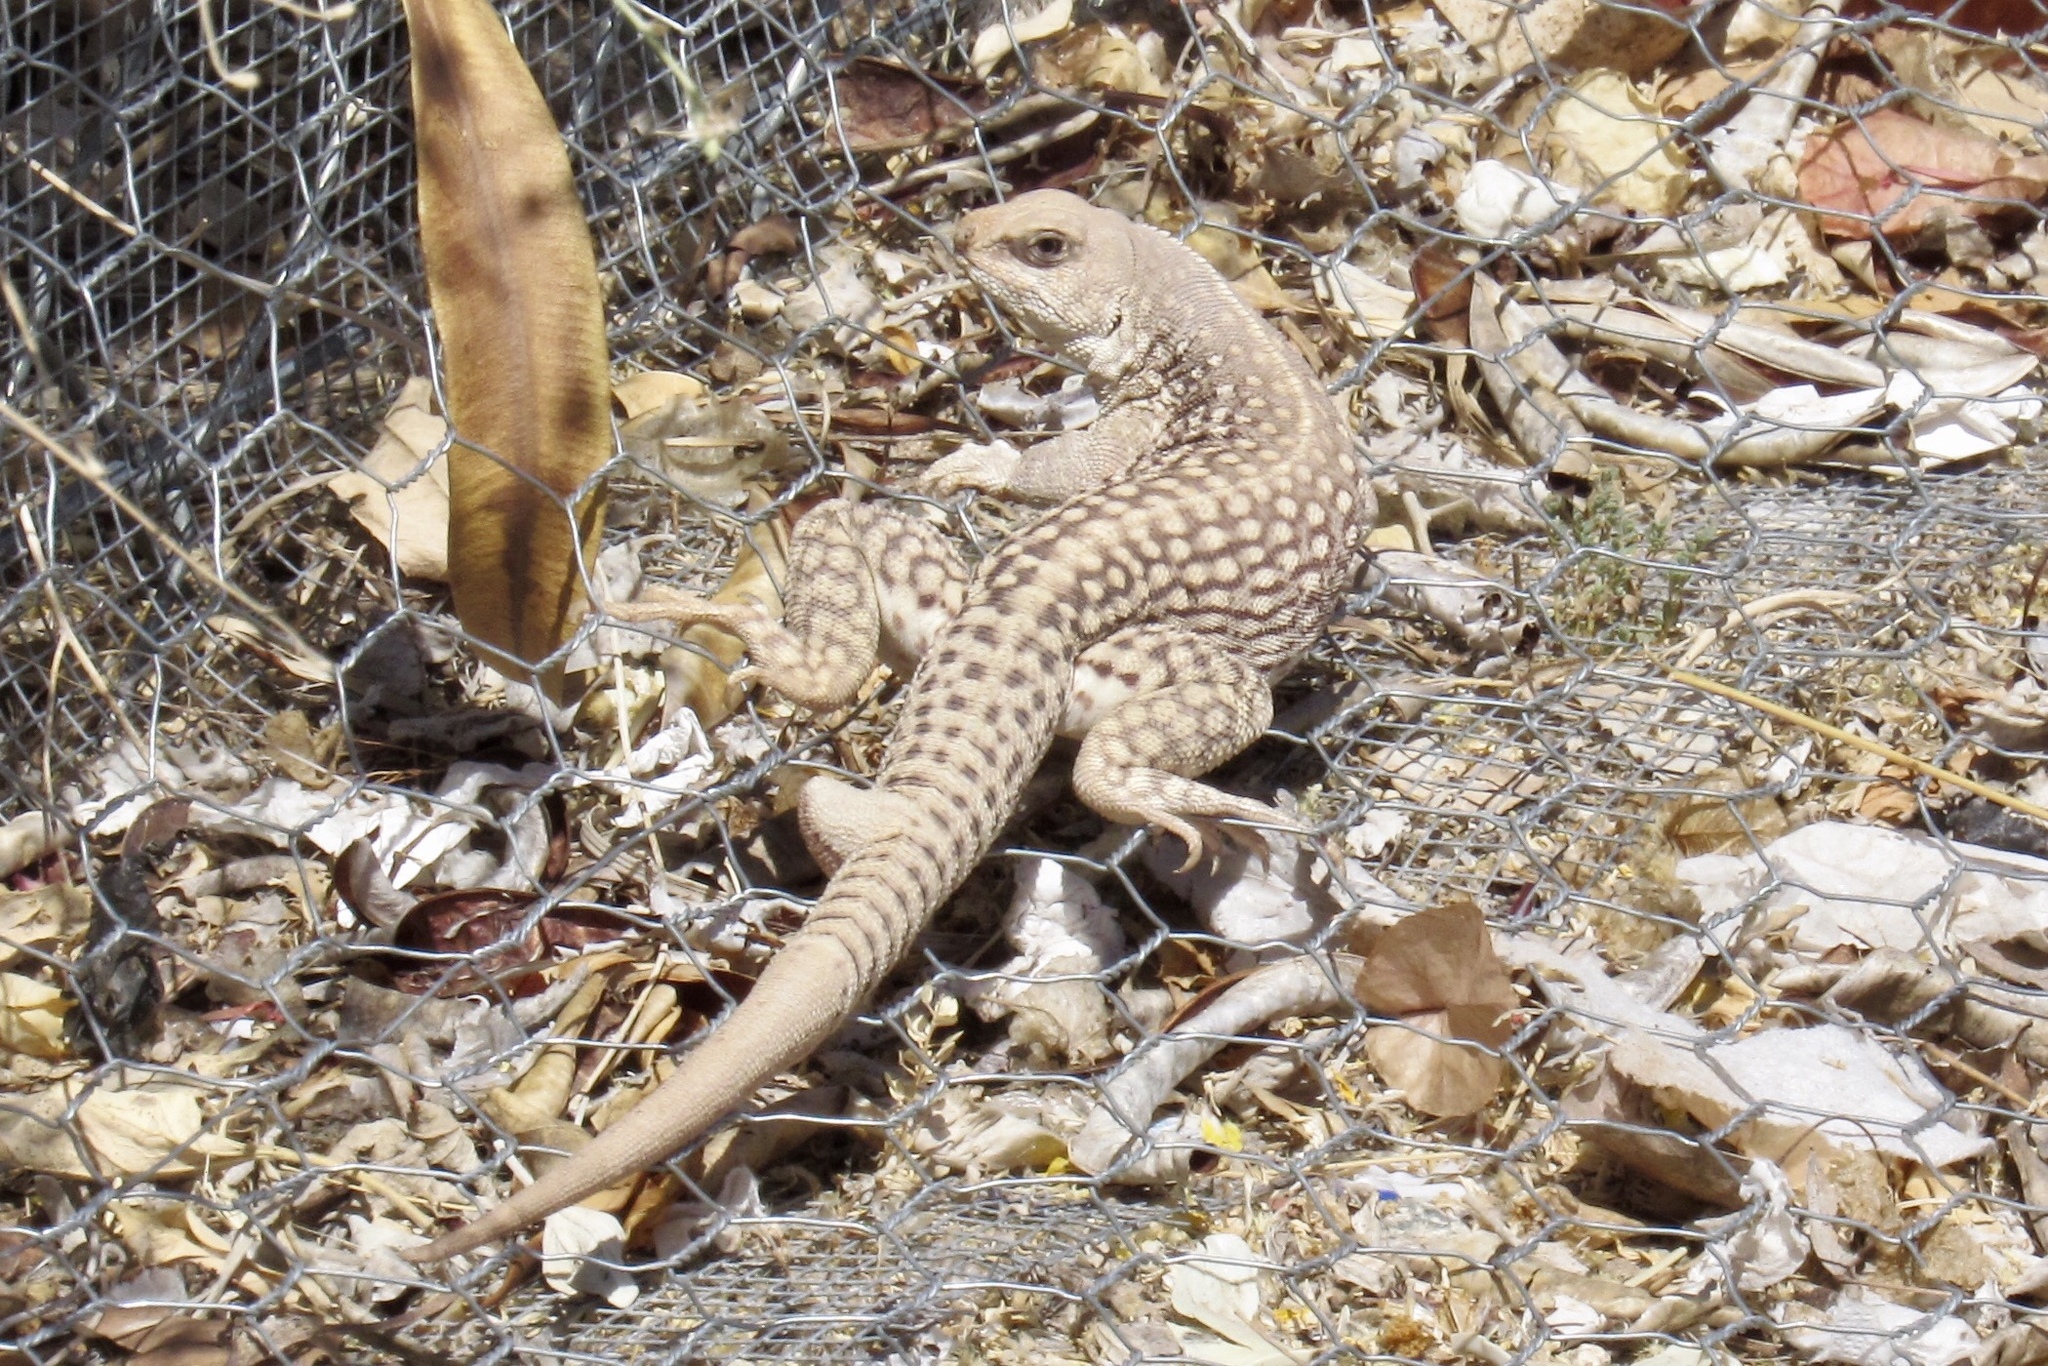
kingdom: Animalia
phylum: Chordata
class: Squamata
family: Iguanidae
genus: Dipsosaurus
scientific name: Dipsosaurus dorsalis
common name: Desert iguana
